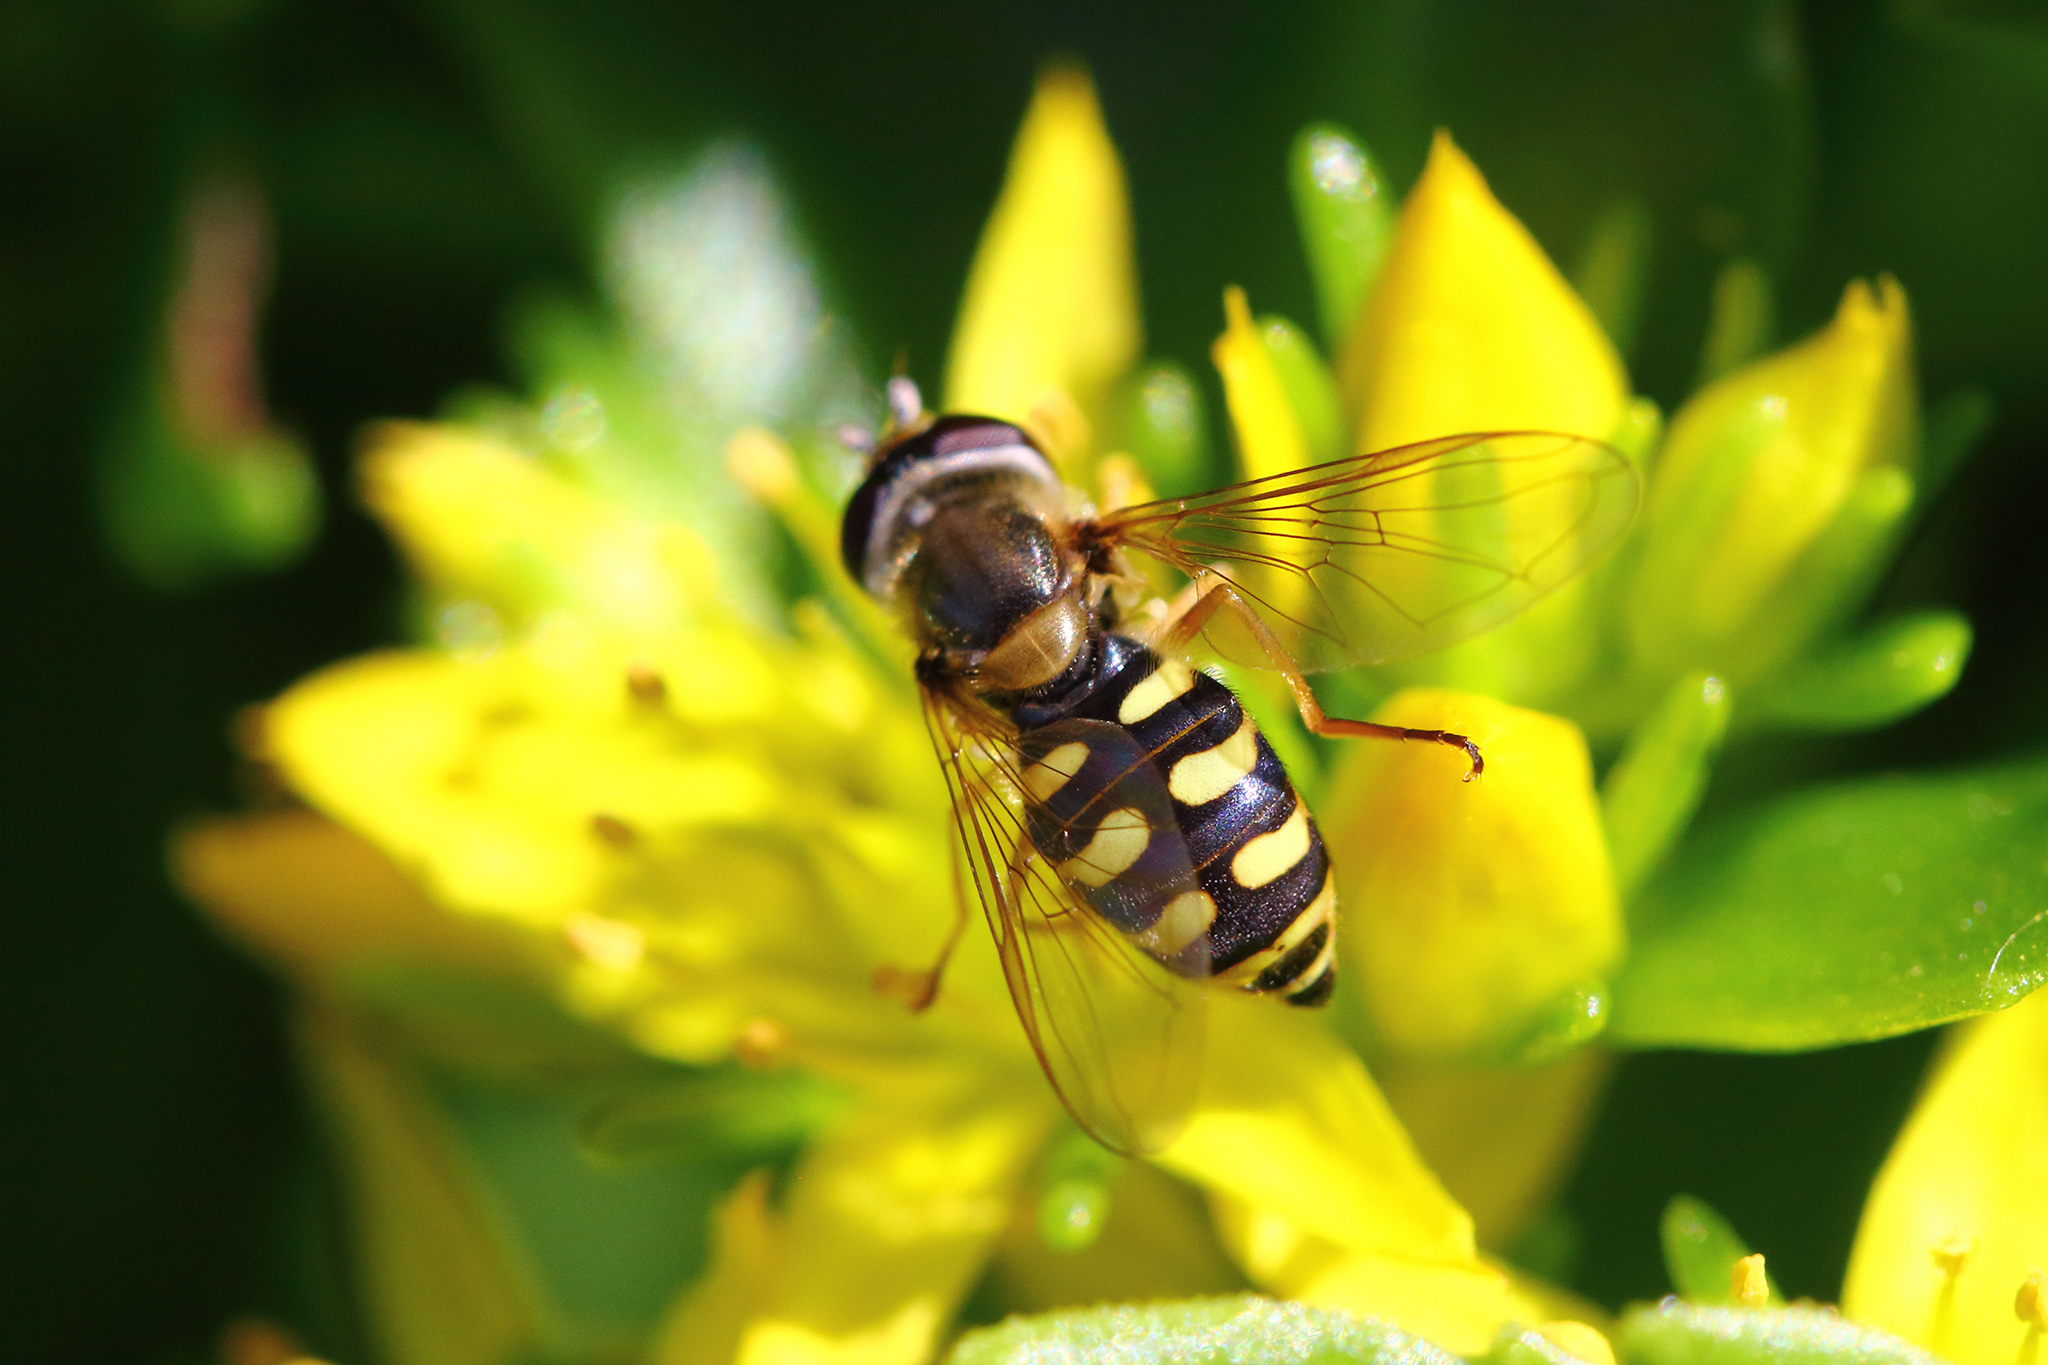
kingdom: Animalia
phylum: Arthropoda
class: Insecta
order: Diptera
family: Syrphidae
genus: Eupeodes
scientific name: Eupeodes corollae
